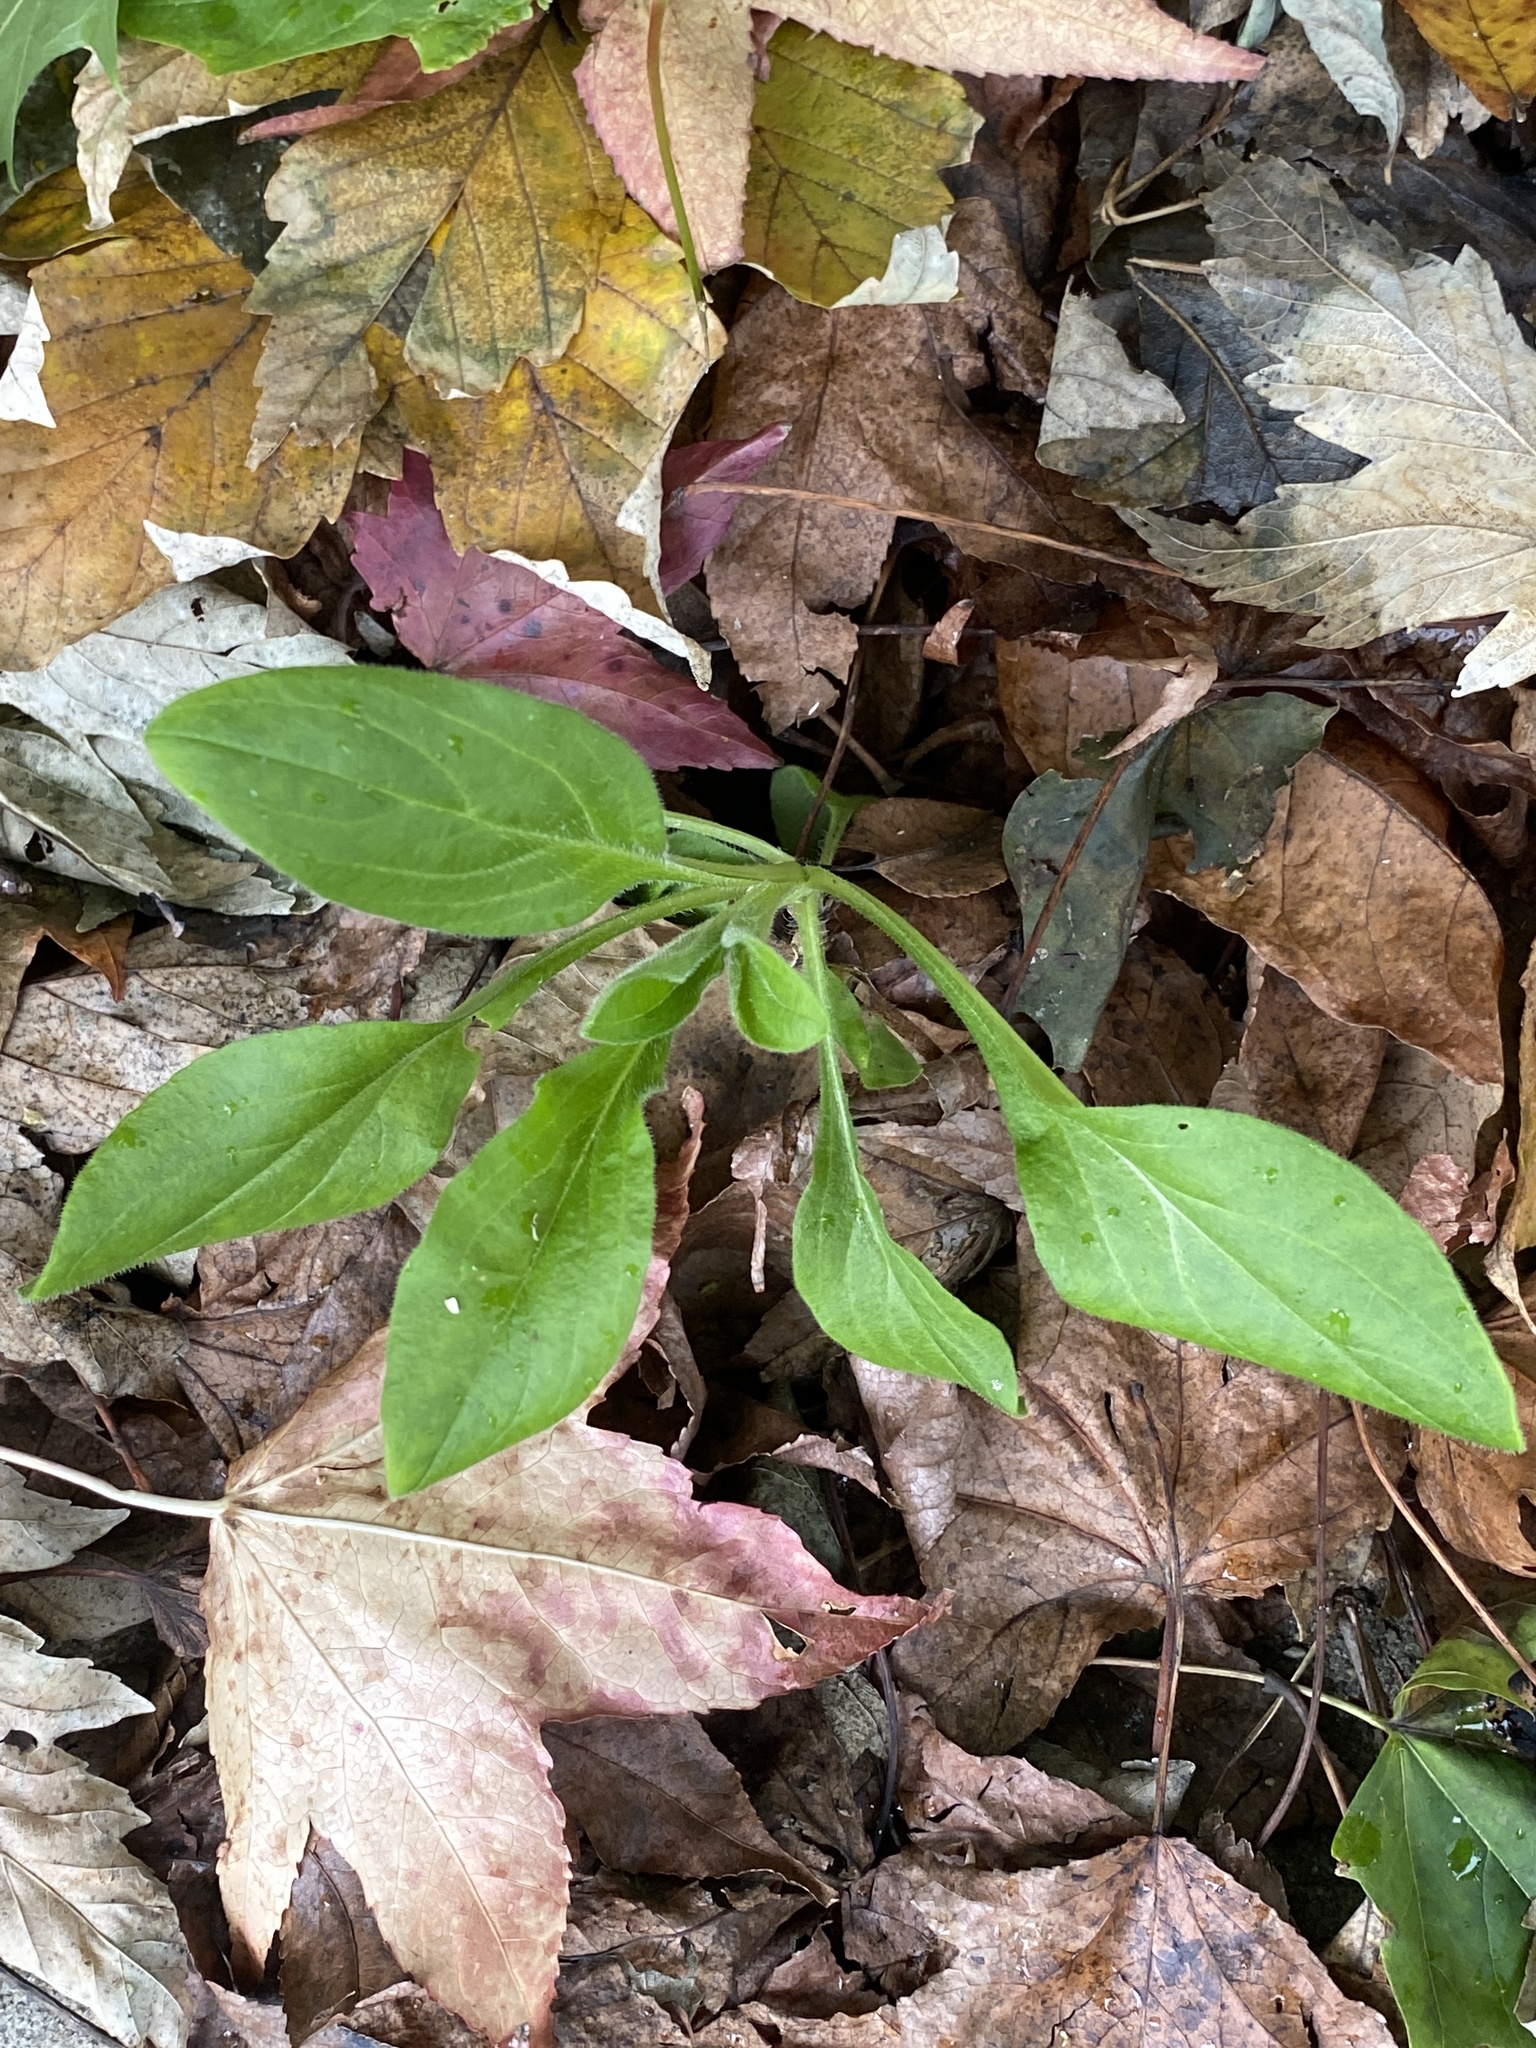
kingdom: Plantae
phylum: Tracheophyta
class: Magnoliopsida
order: Caryophyllales
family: Caryophyllaceae
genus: Silene
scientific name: Silene latifolia
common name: White campion
